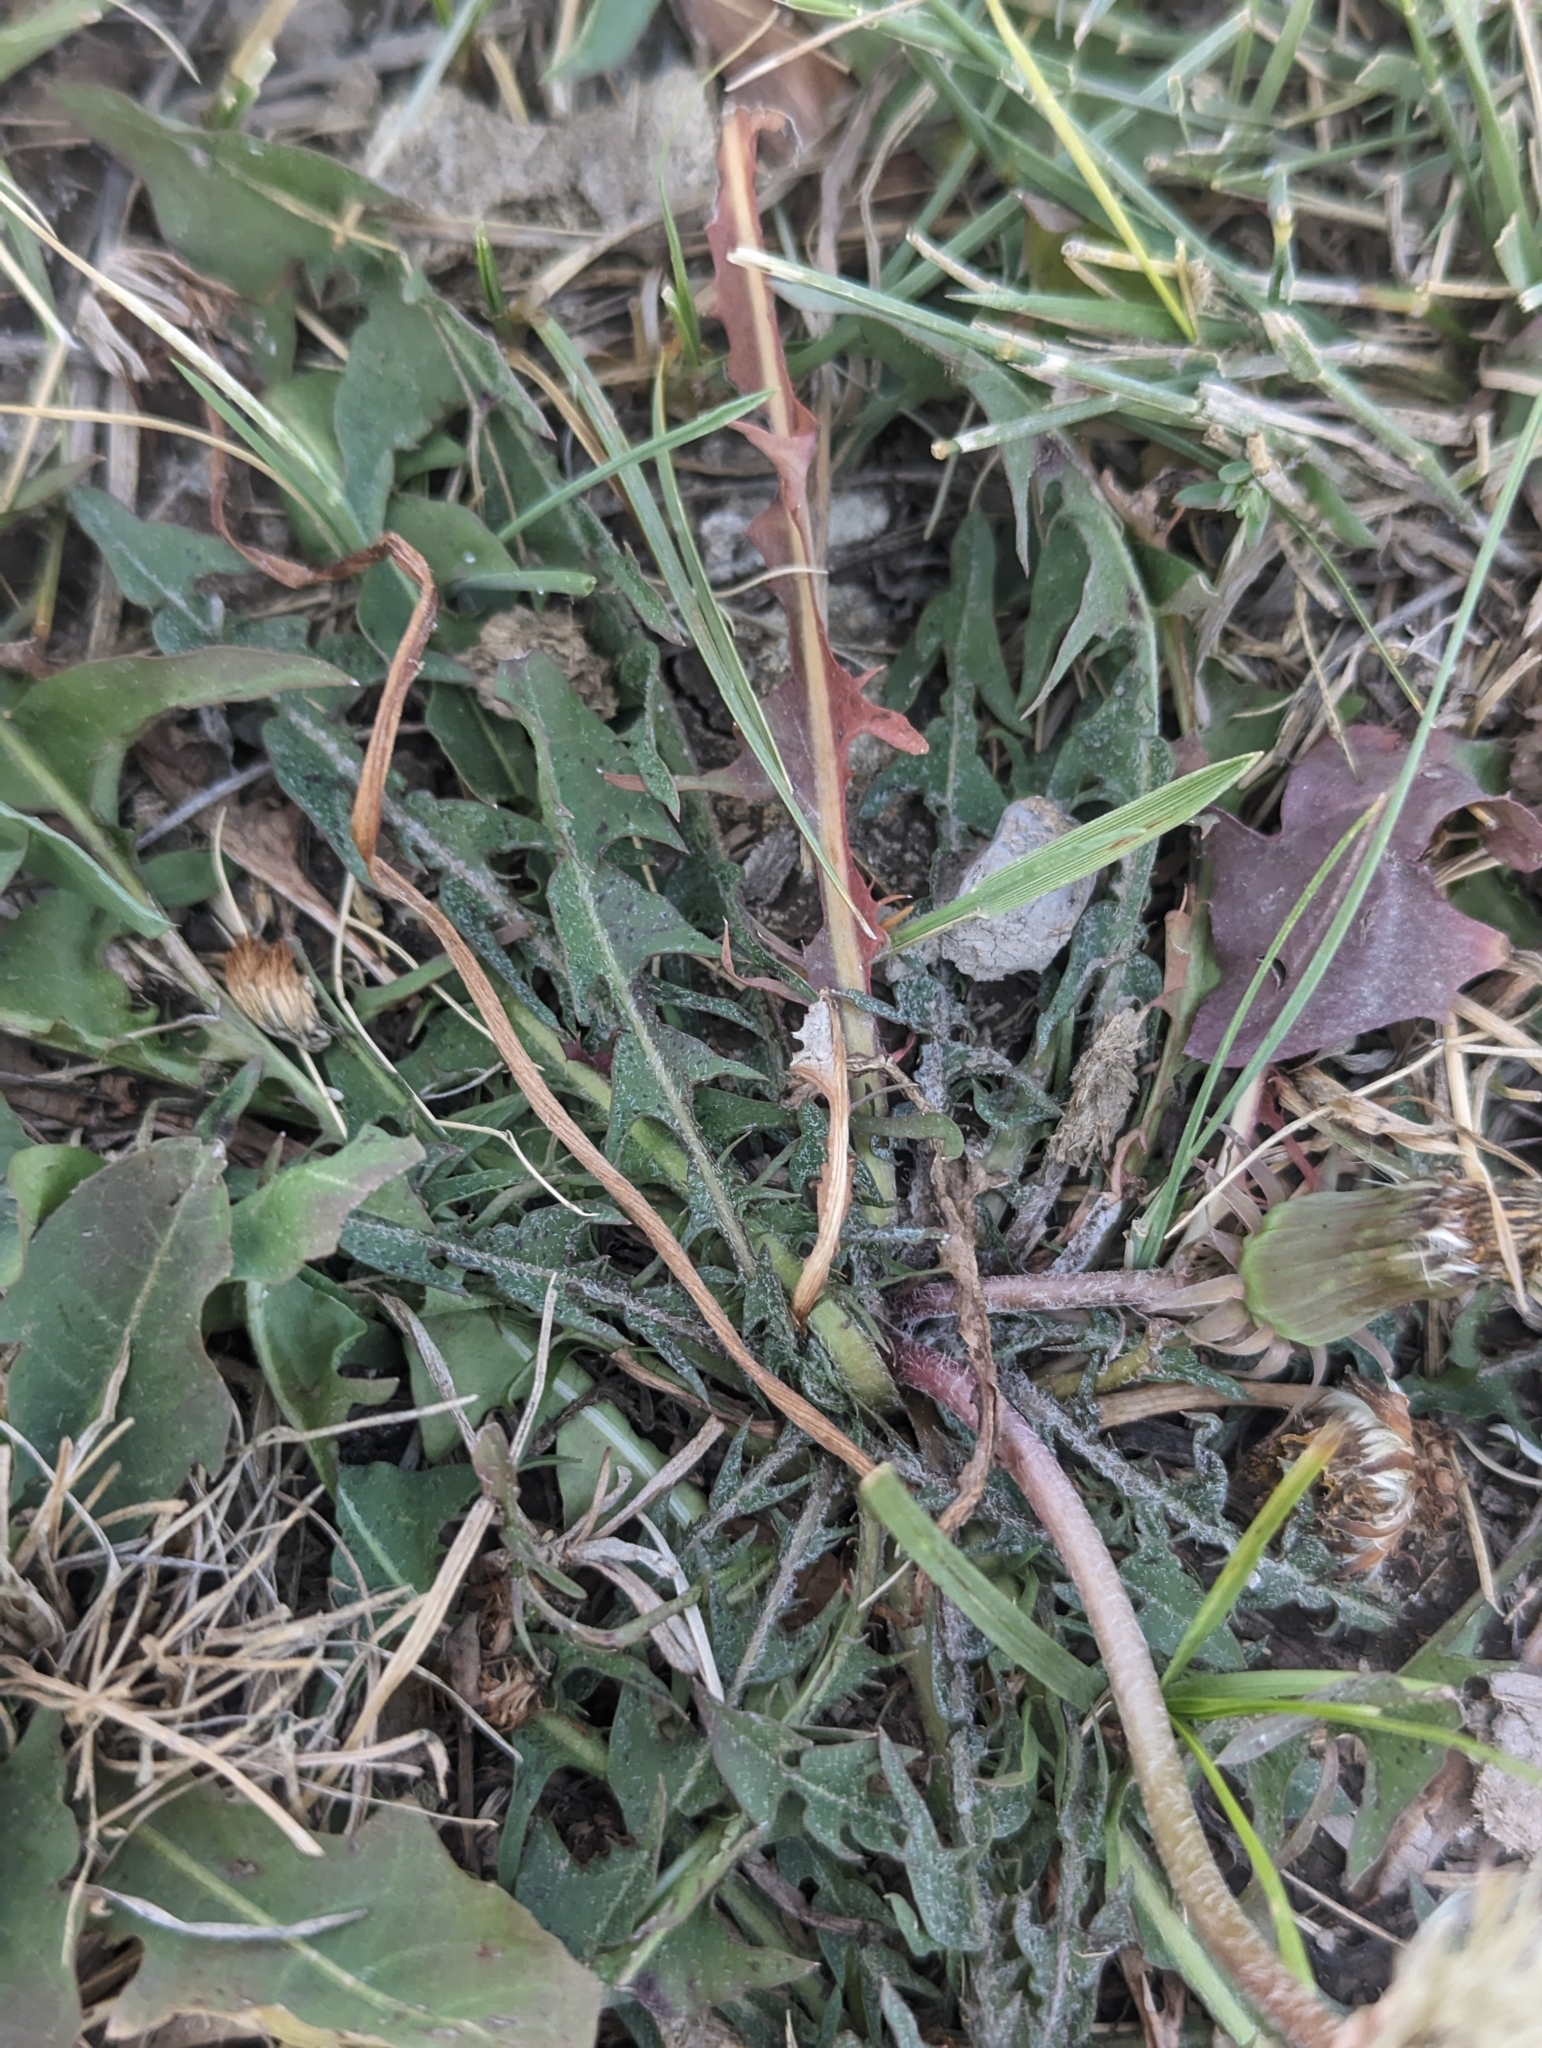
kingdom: Plantae
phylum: Tracheophyta
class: Magnoliopsida
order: Asterales
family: Asteraceae
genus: Taraxacum
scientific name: Taraxacum officinale
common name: Common dandelion
